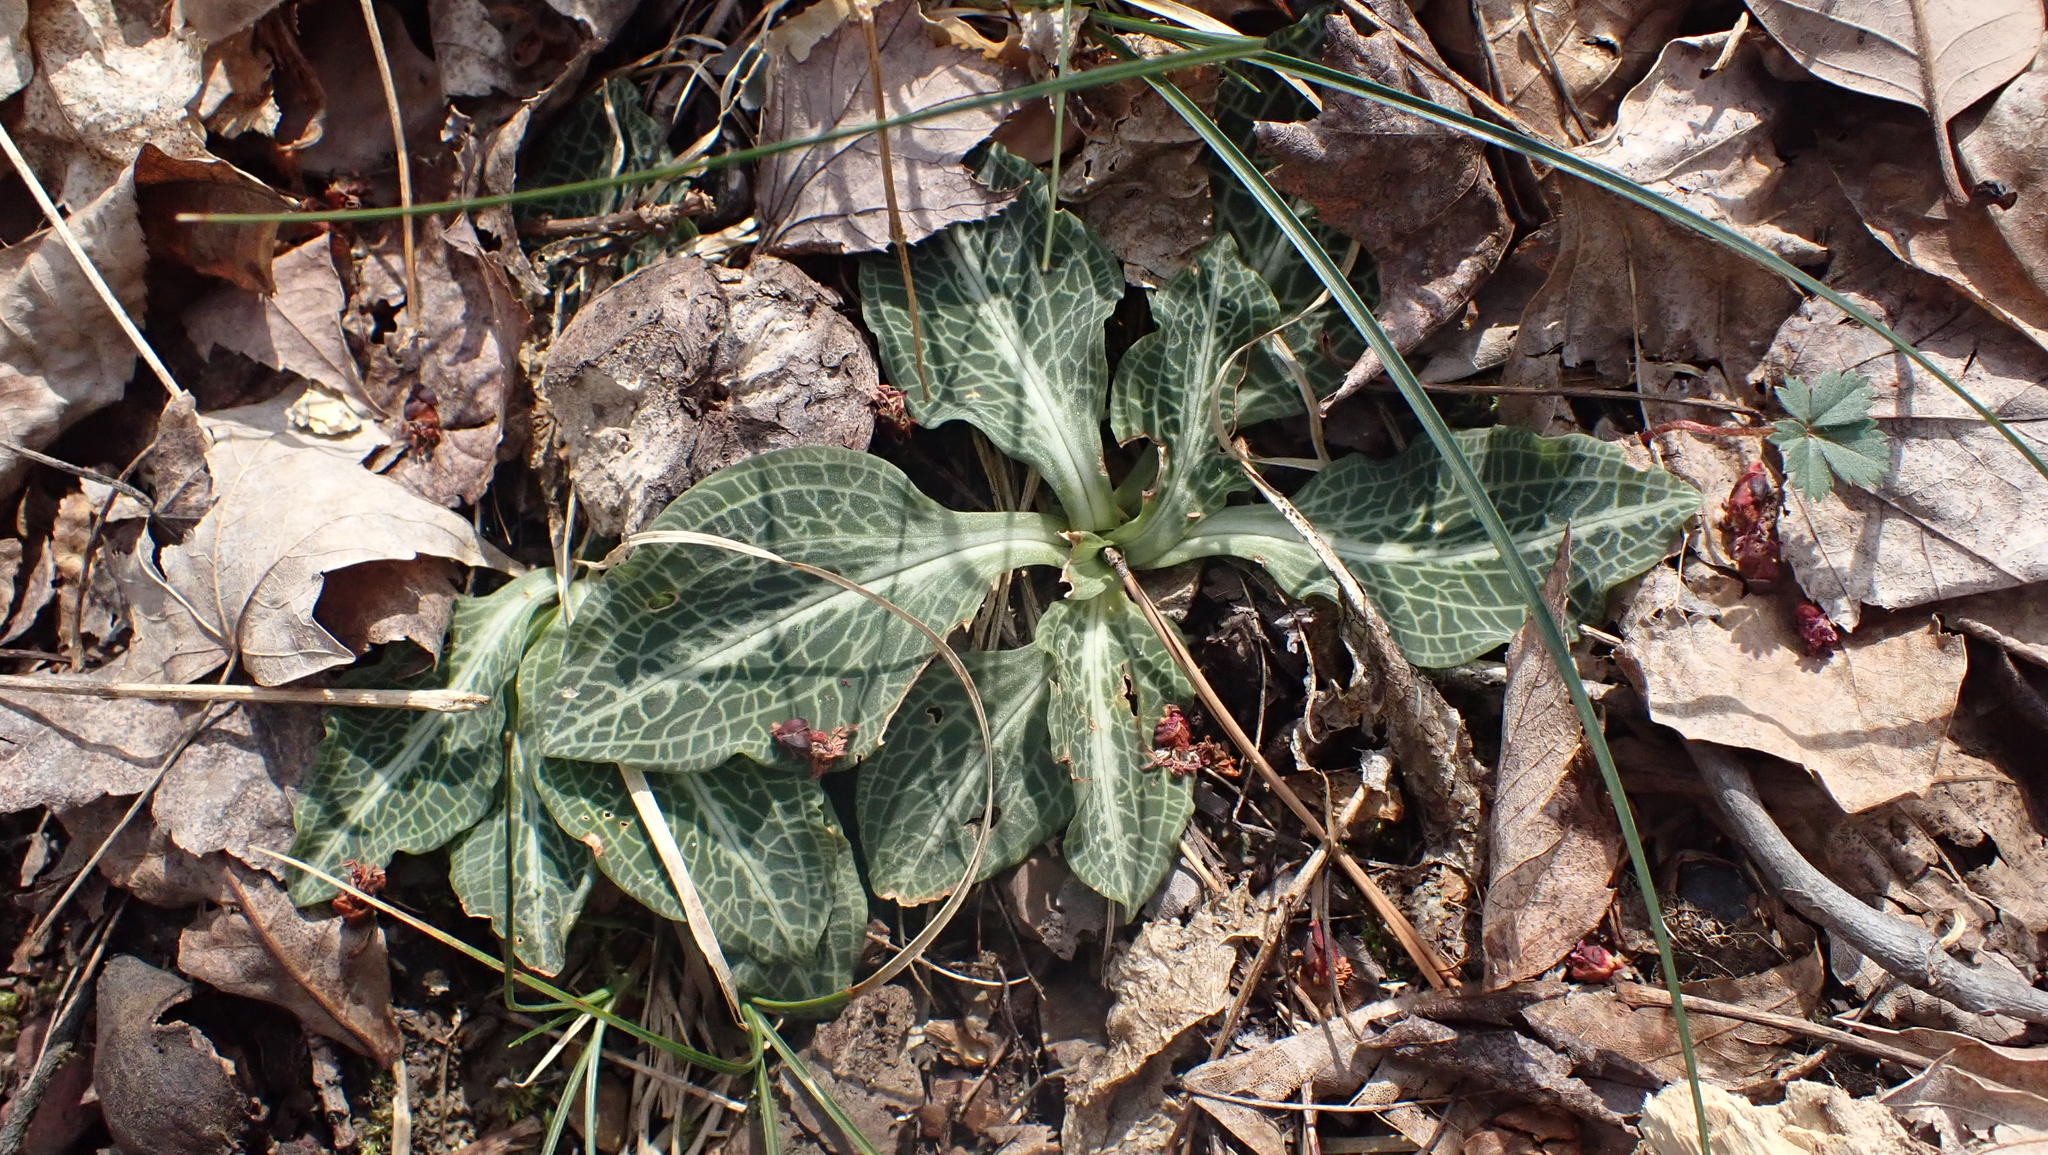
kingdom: Plantae
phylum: Tracheophyta
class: Liliopsida
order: Asparagales
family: Orchidaceae
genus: Goodyera
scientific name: Goodyera pubescens
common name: Downy rattlesnake-plantain
